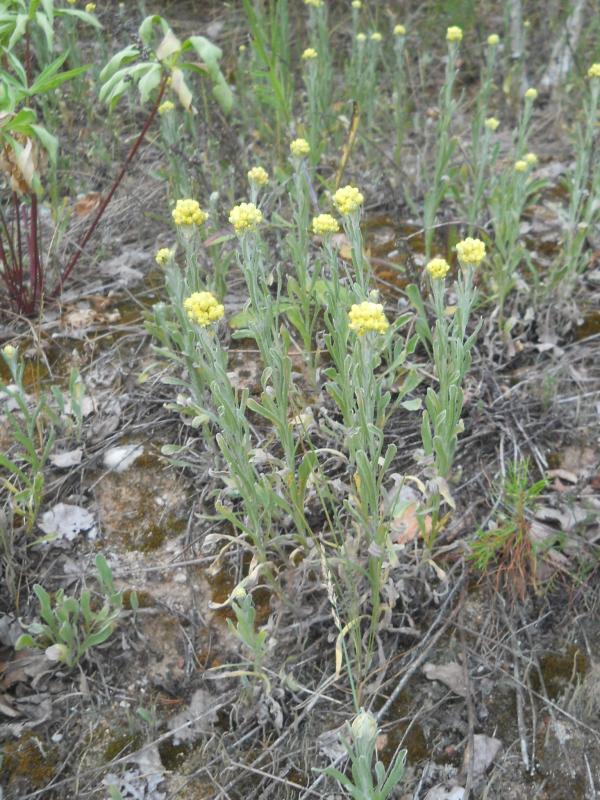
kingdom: Plantae
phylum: Tracheophyta
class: Magnoliopsida
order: Asterales
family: Asteraceae
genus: Helichrysum
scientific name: Helichrysum arenarium
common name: Strawflower
